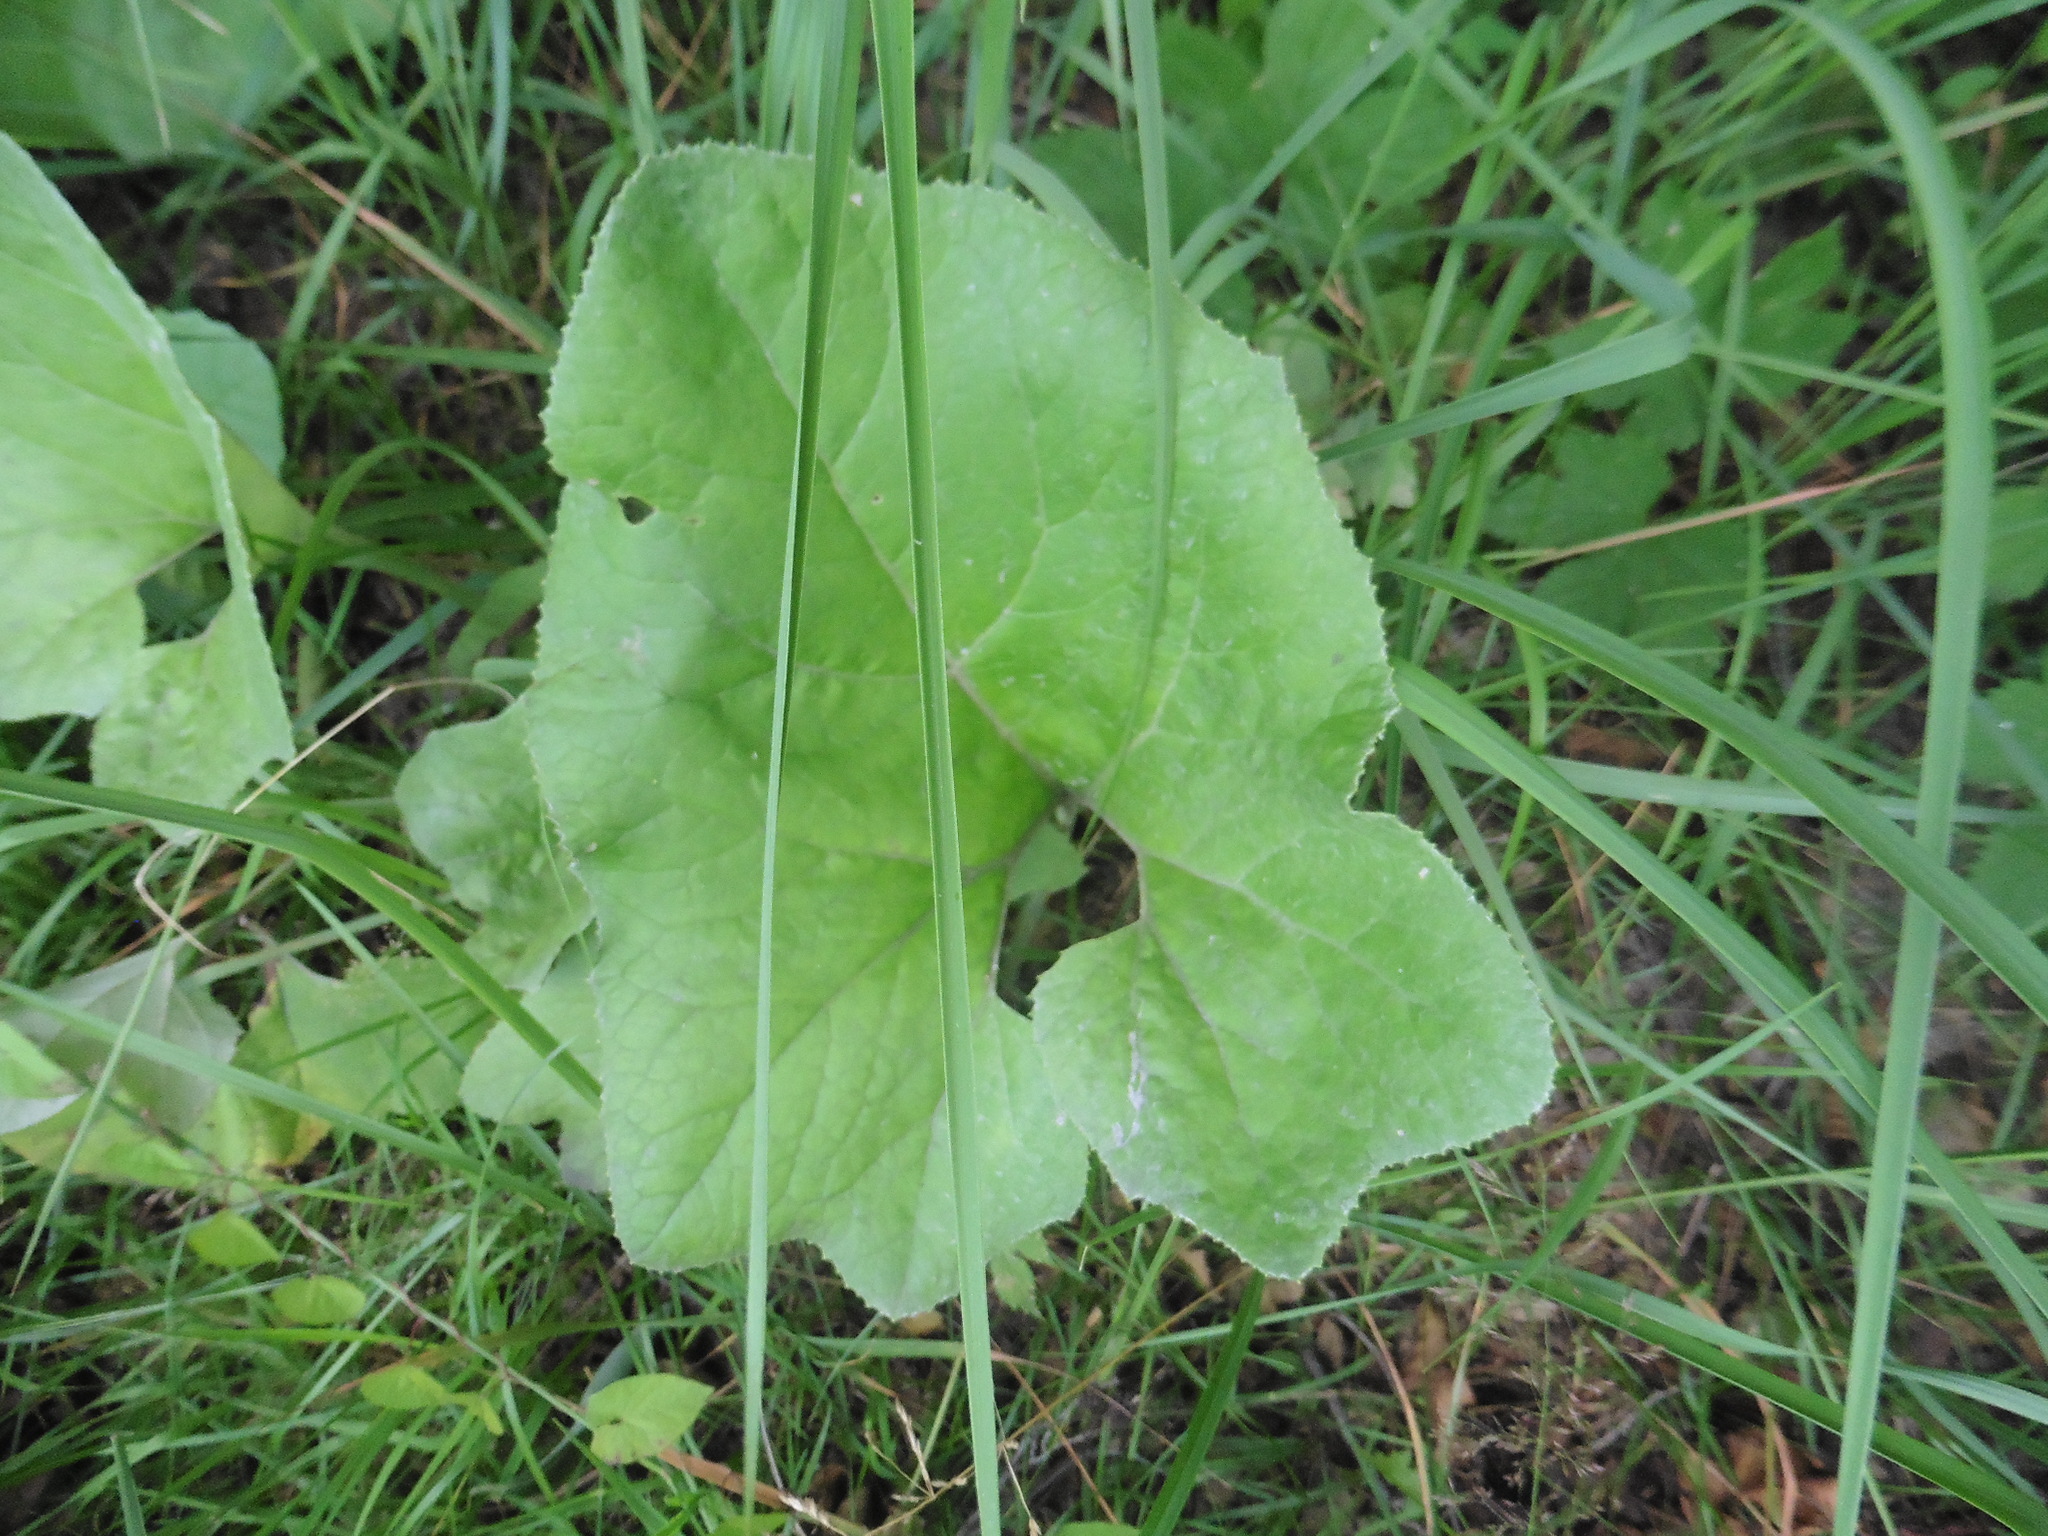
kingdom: Plantae
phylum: Tracheophyta
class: Magnoliopsida
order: Asterales
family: Asteraceae
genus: Petasites
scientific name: Petasites spurius
